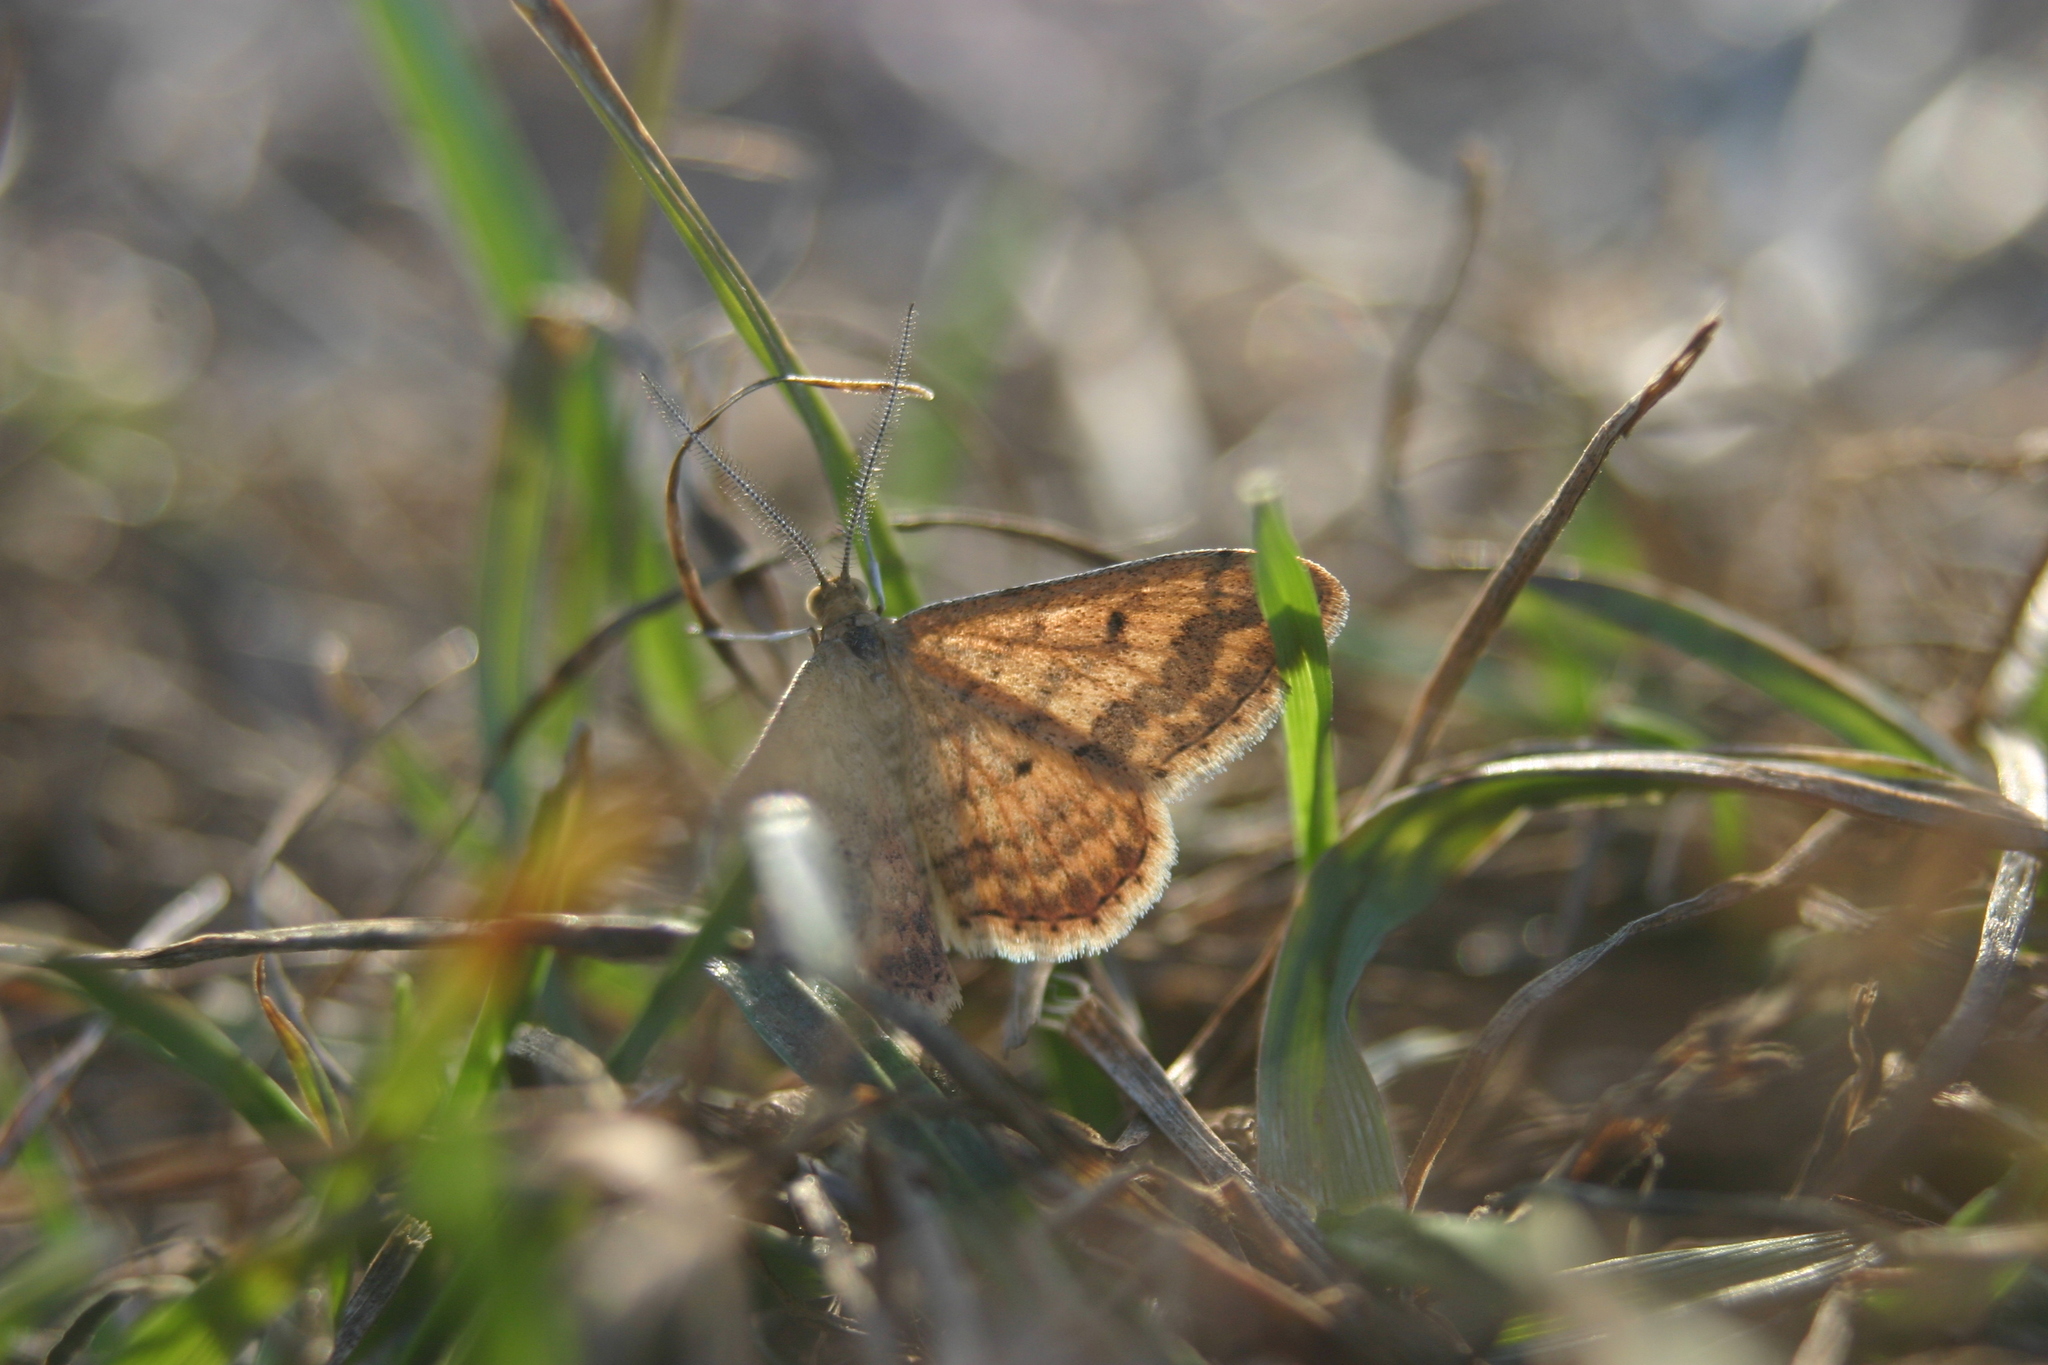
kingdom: Animalia
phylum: Arthropoda
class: Insecta
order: Lepidoptera
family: Geometridae
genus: Scopula
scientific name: Scopula rubraria
